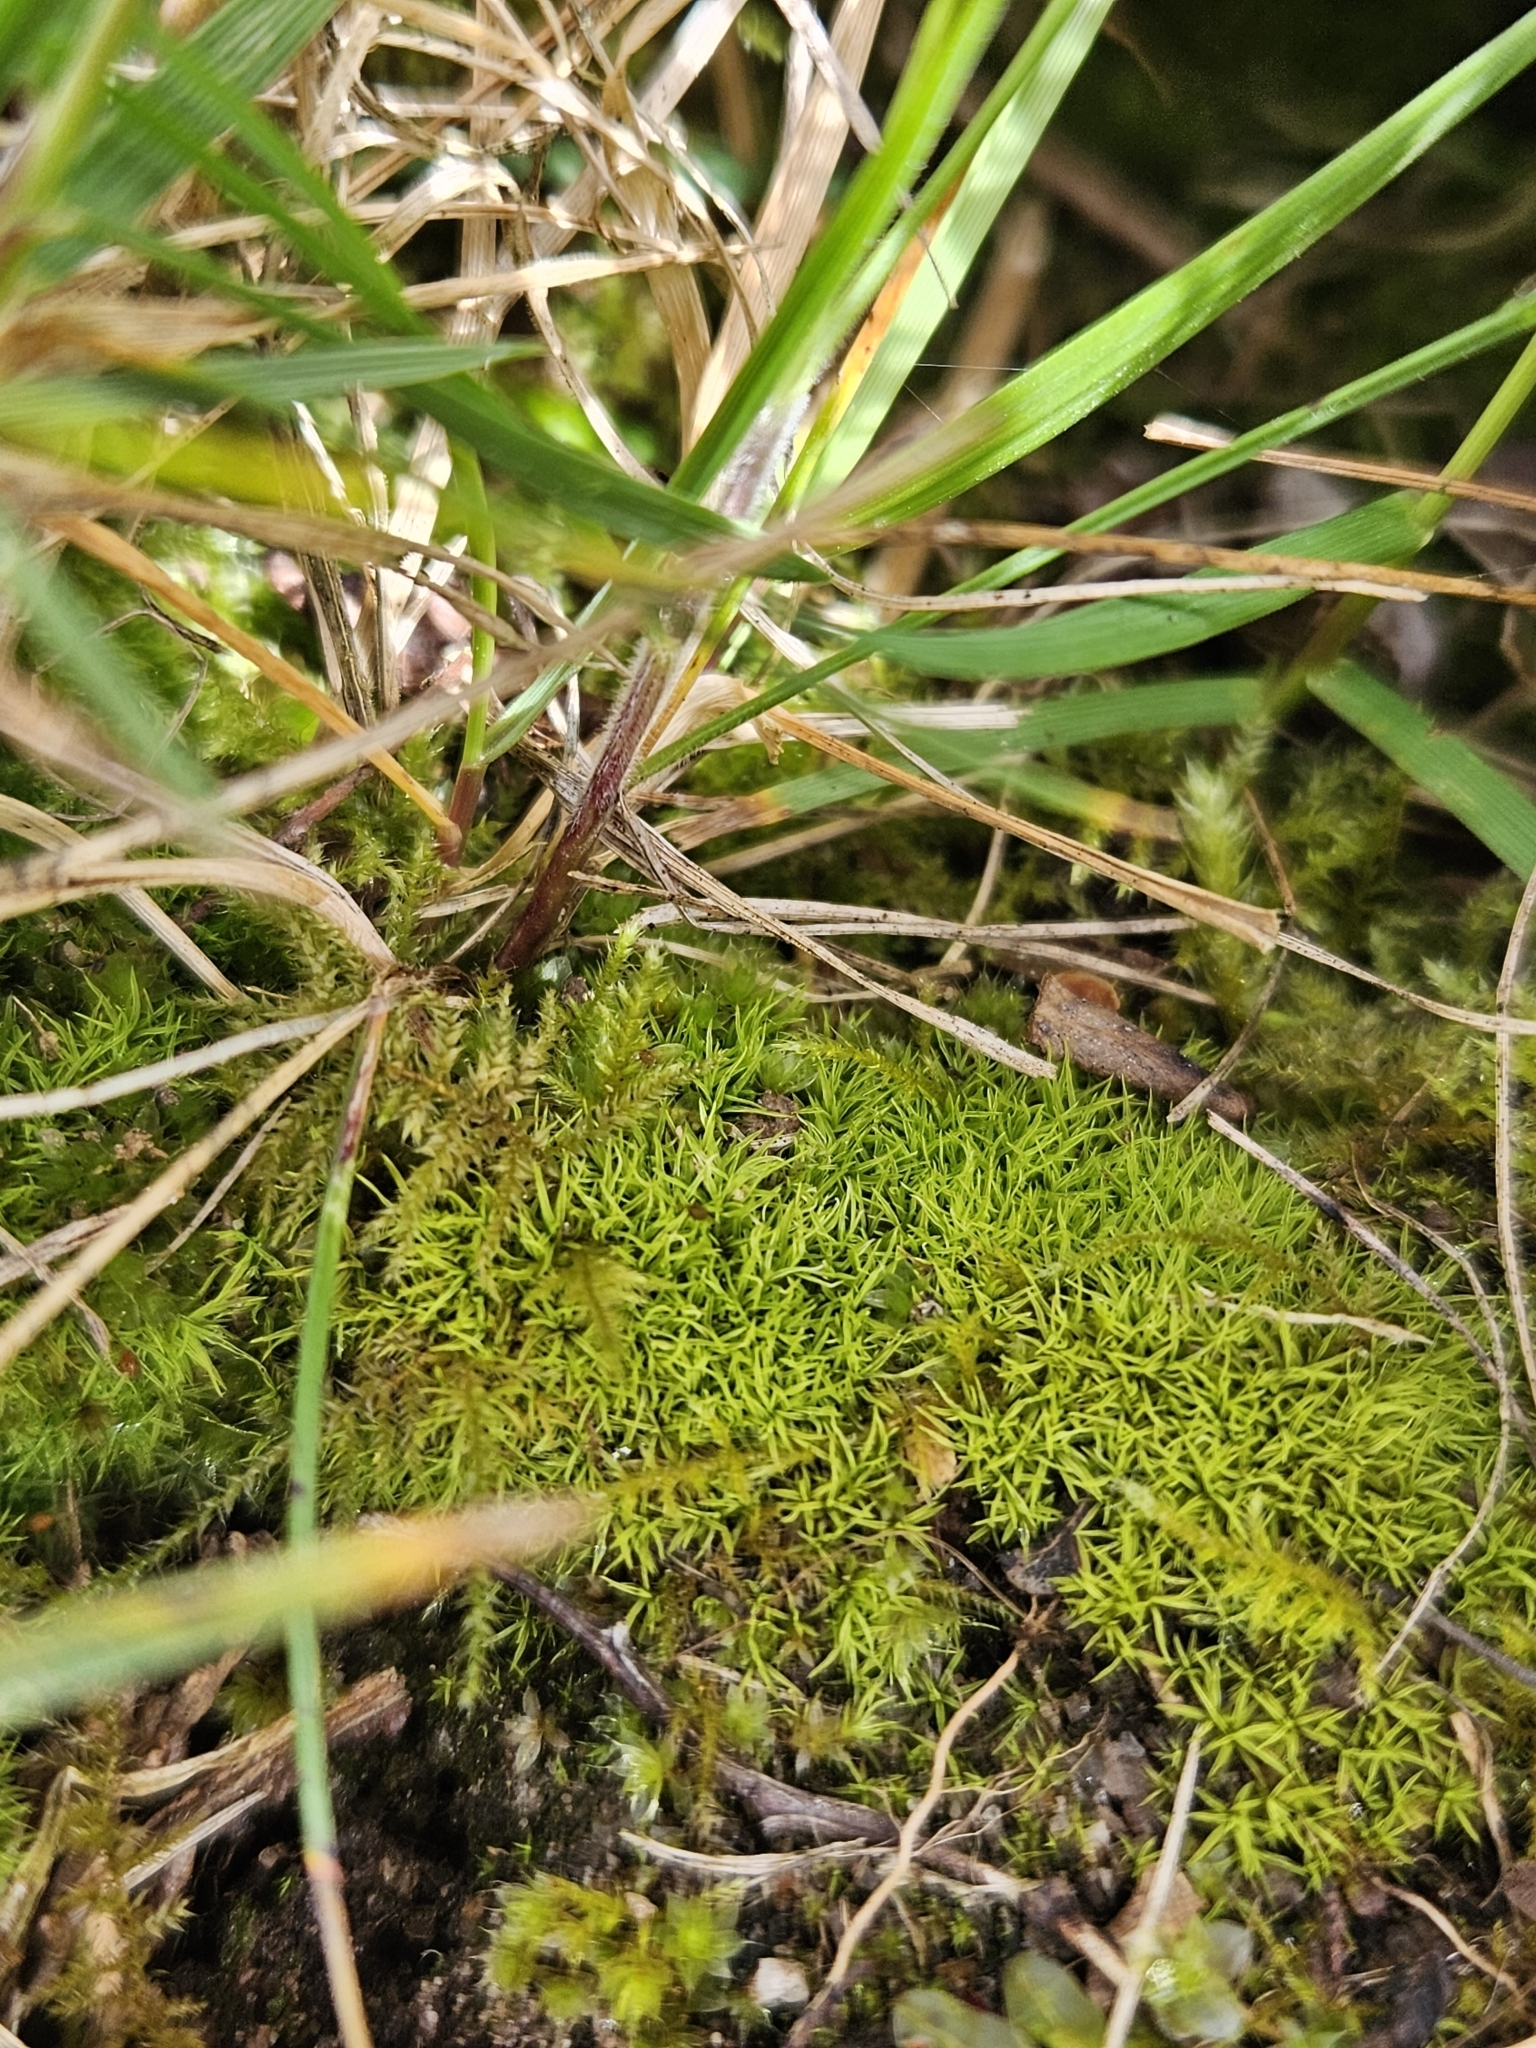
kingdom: Plantae
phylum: Bryophyta
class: Bryopsida
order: Pottiales
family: Pottiaceae
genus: Weissia
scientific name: Weissia controversa
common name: Green-tufted stubble moss
